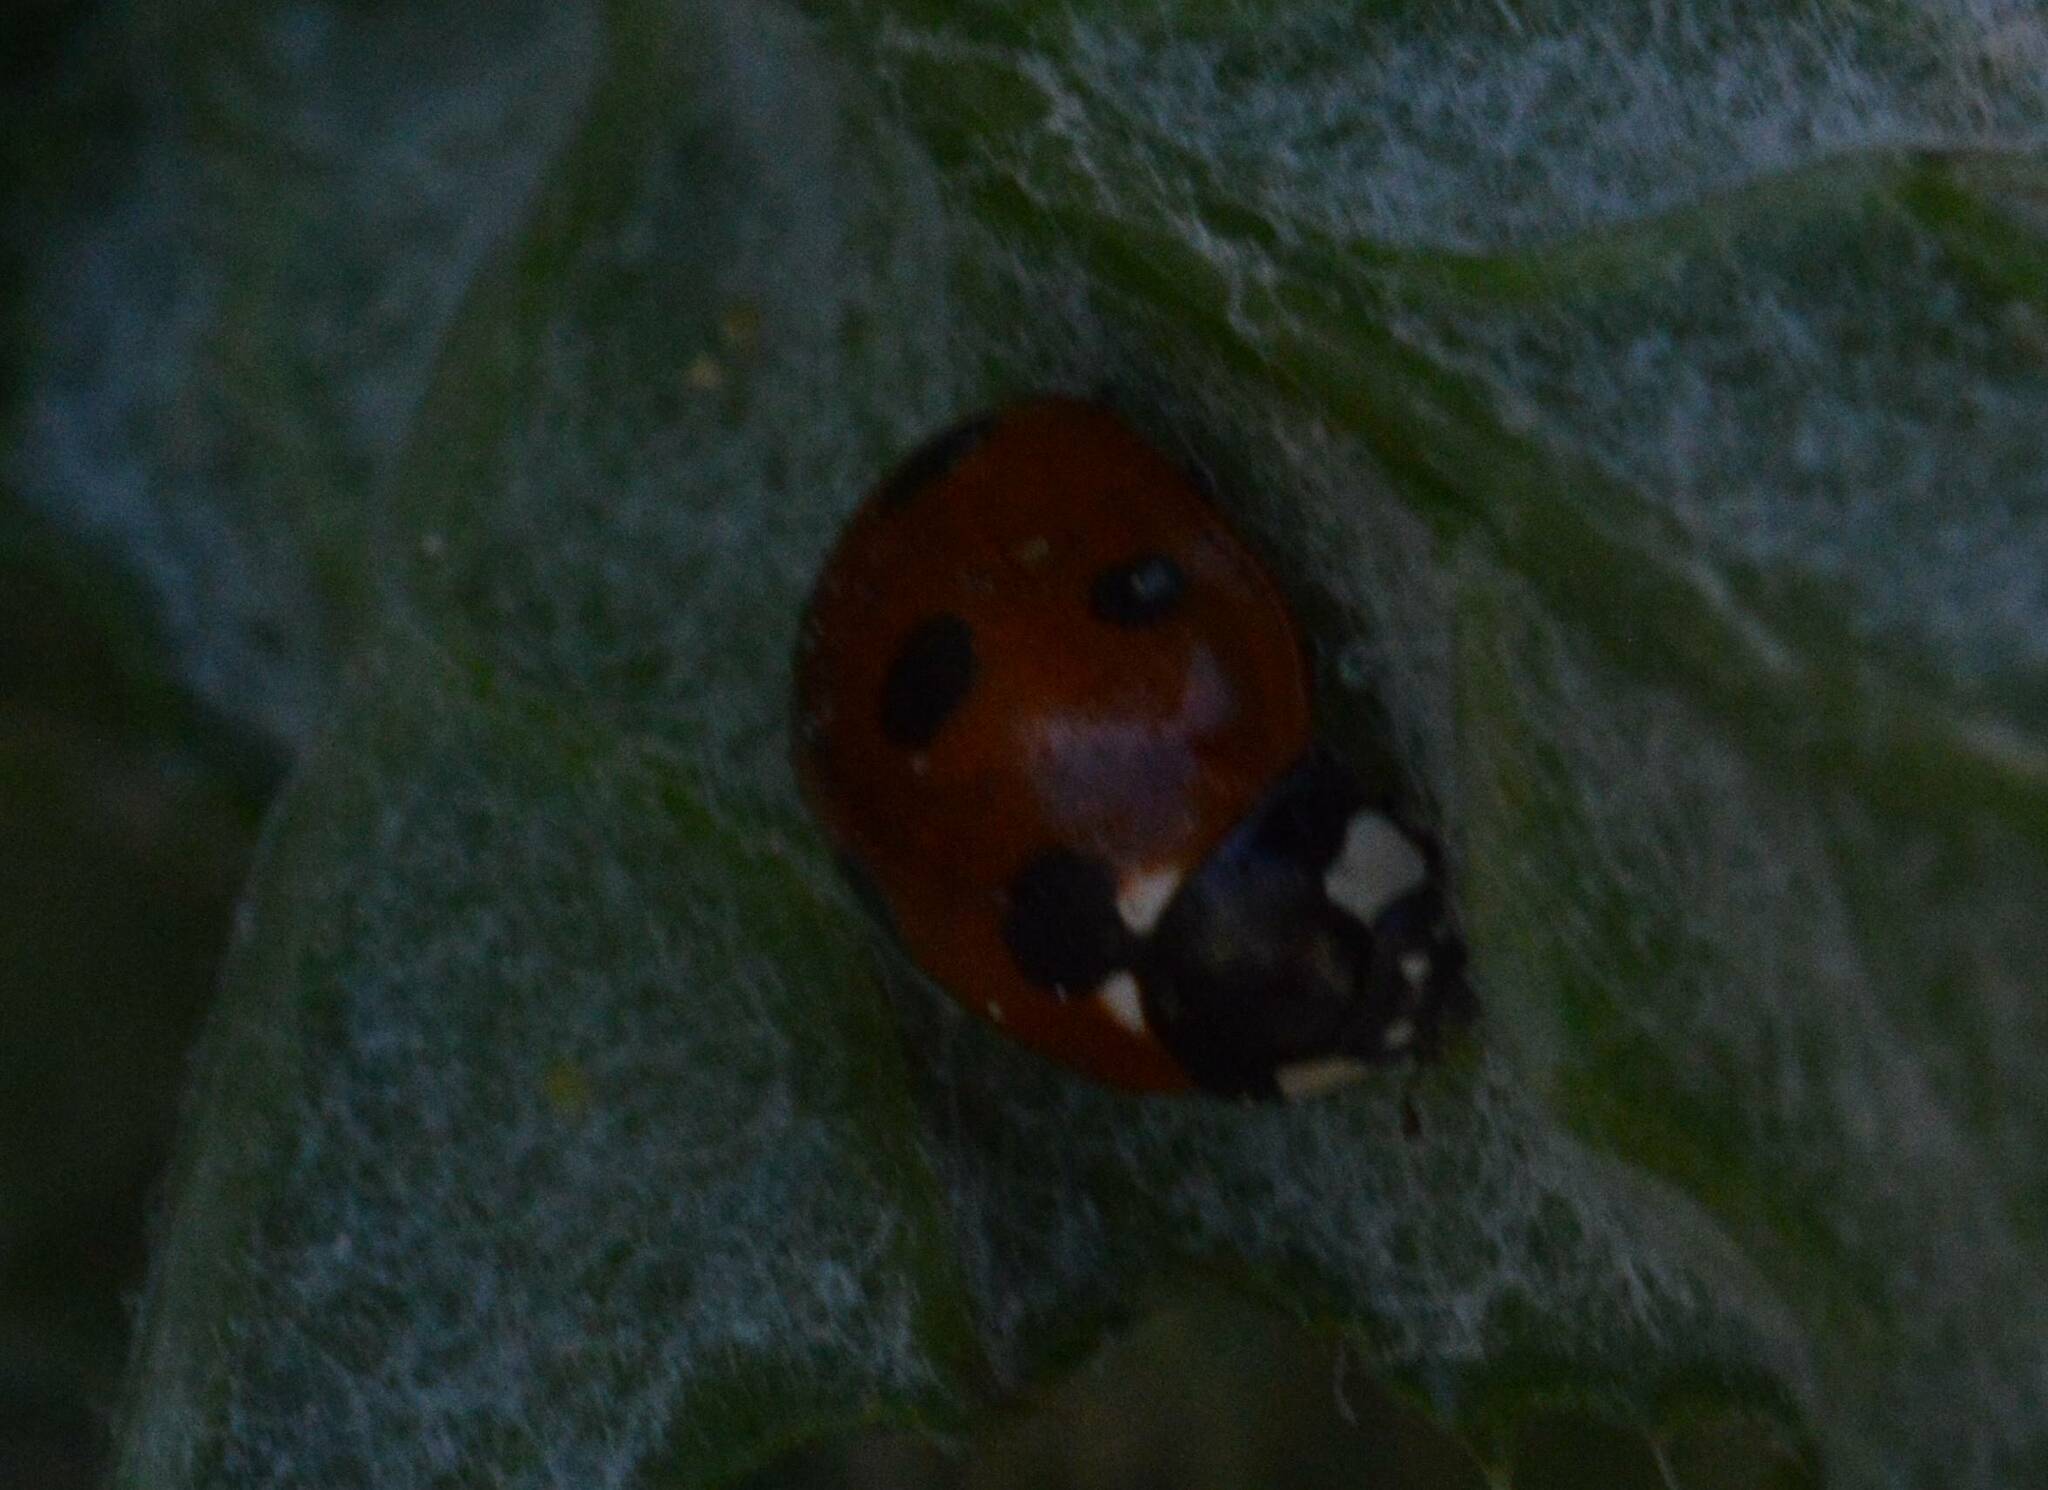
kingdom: Animalia
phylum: Arthropoda
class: Insecta
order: Coleoptera
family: Coccinellidae
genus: Coccinella
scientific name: Coccinella algerica
